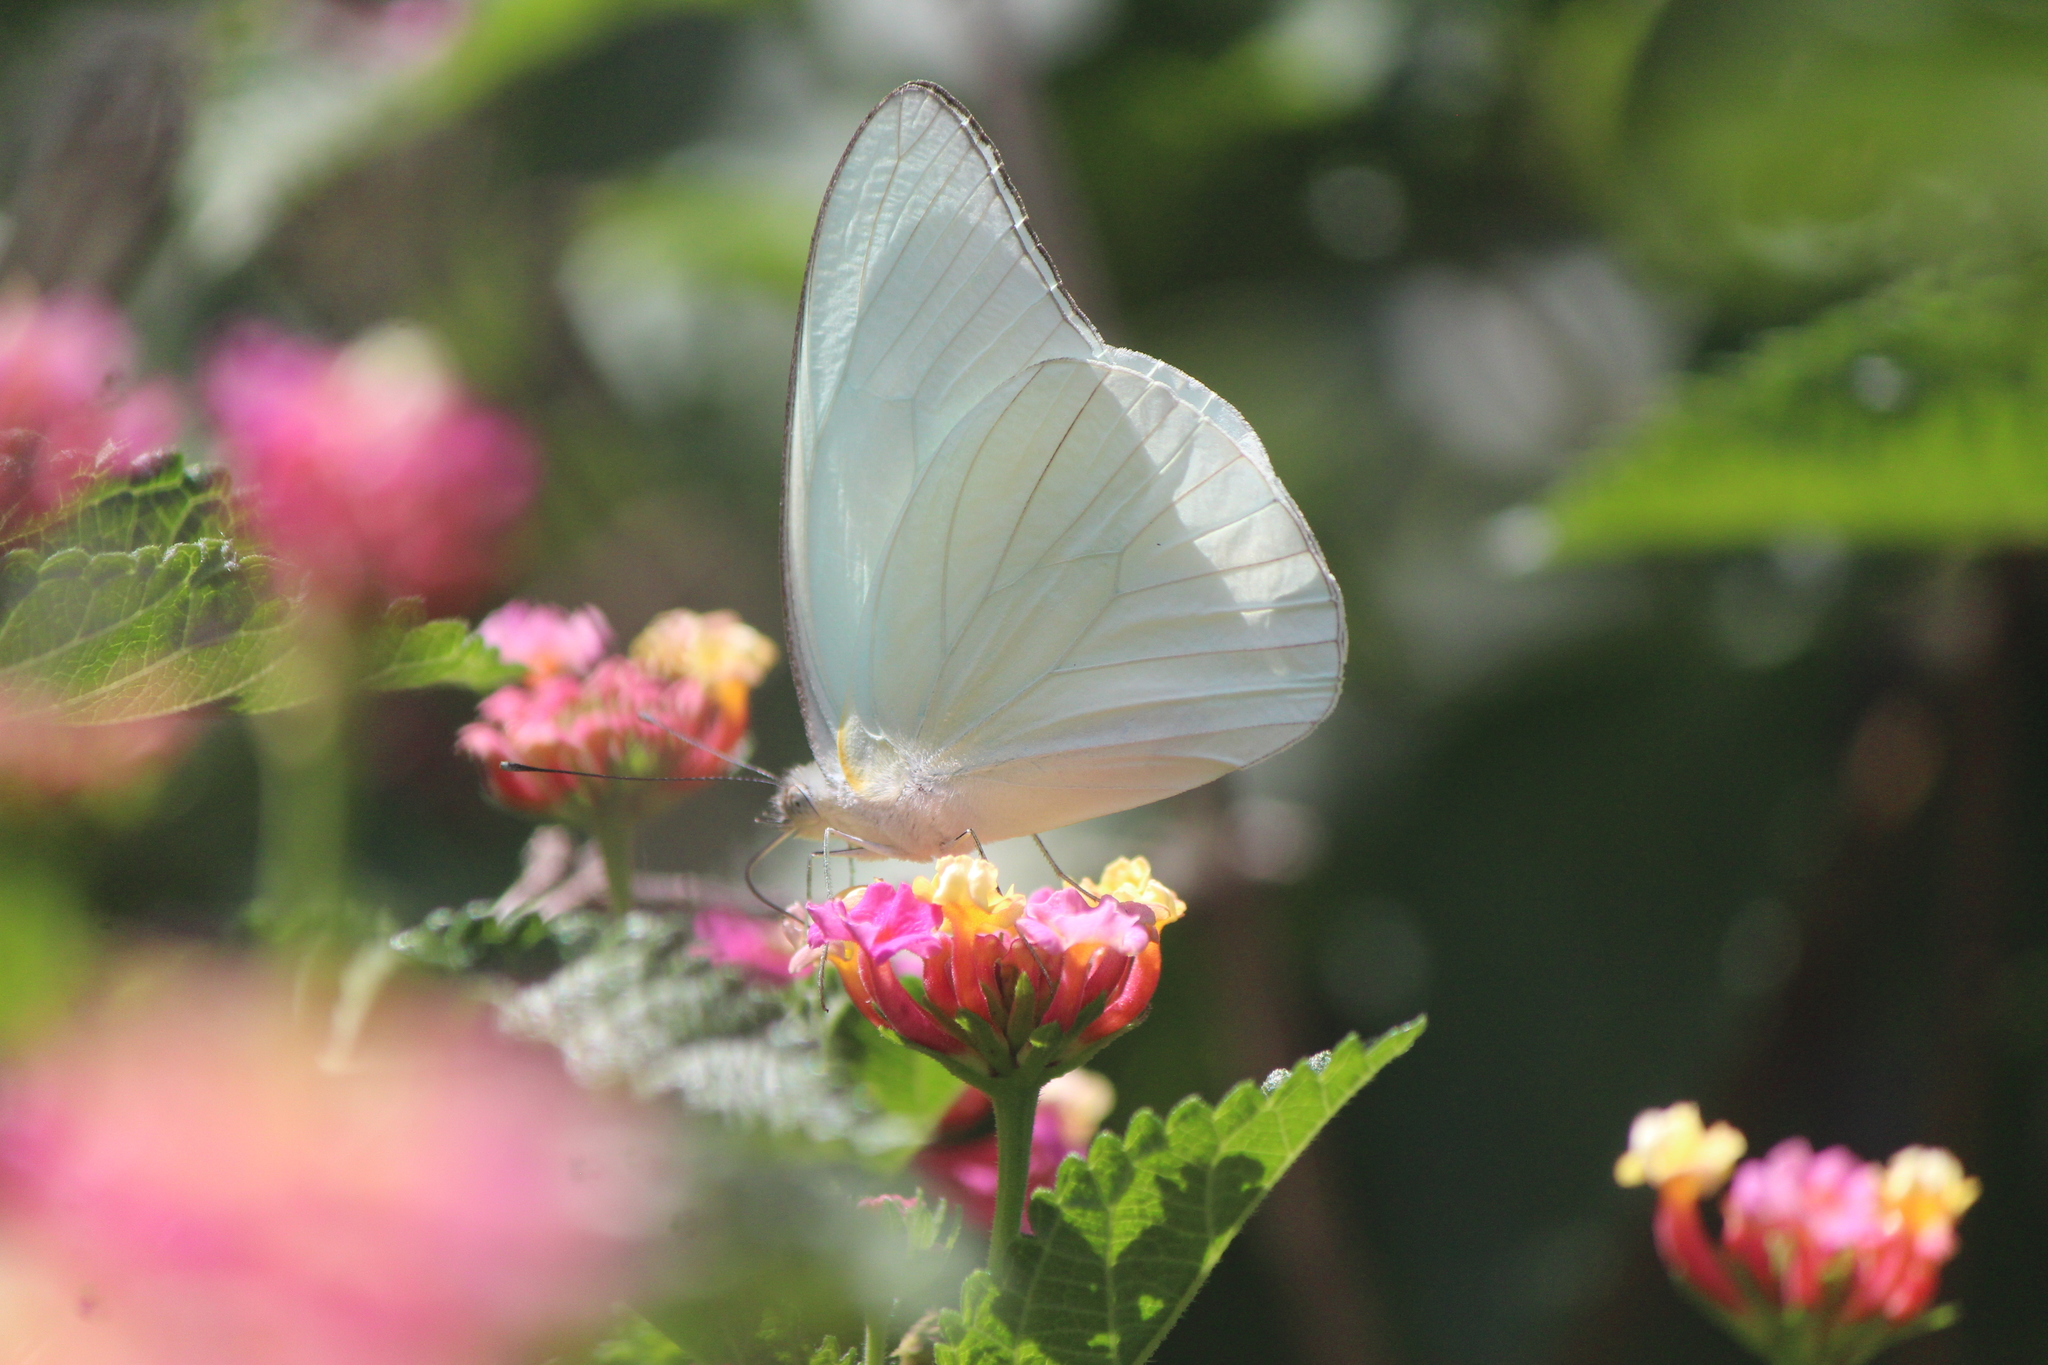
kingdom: Animalia
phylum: Arthropoda
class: Insecta
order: Lepidoptera
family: Pieridae
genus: Glutophrissa
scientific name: Glutophrissa drusilla
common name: Florida white
